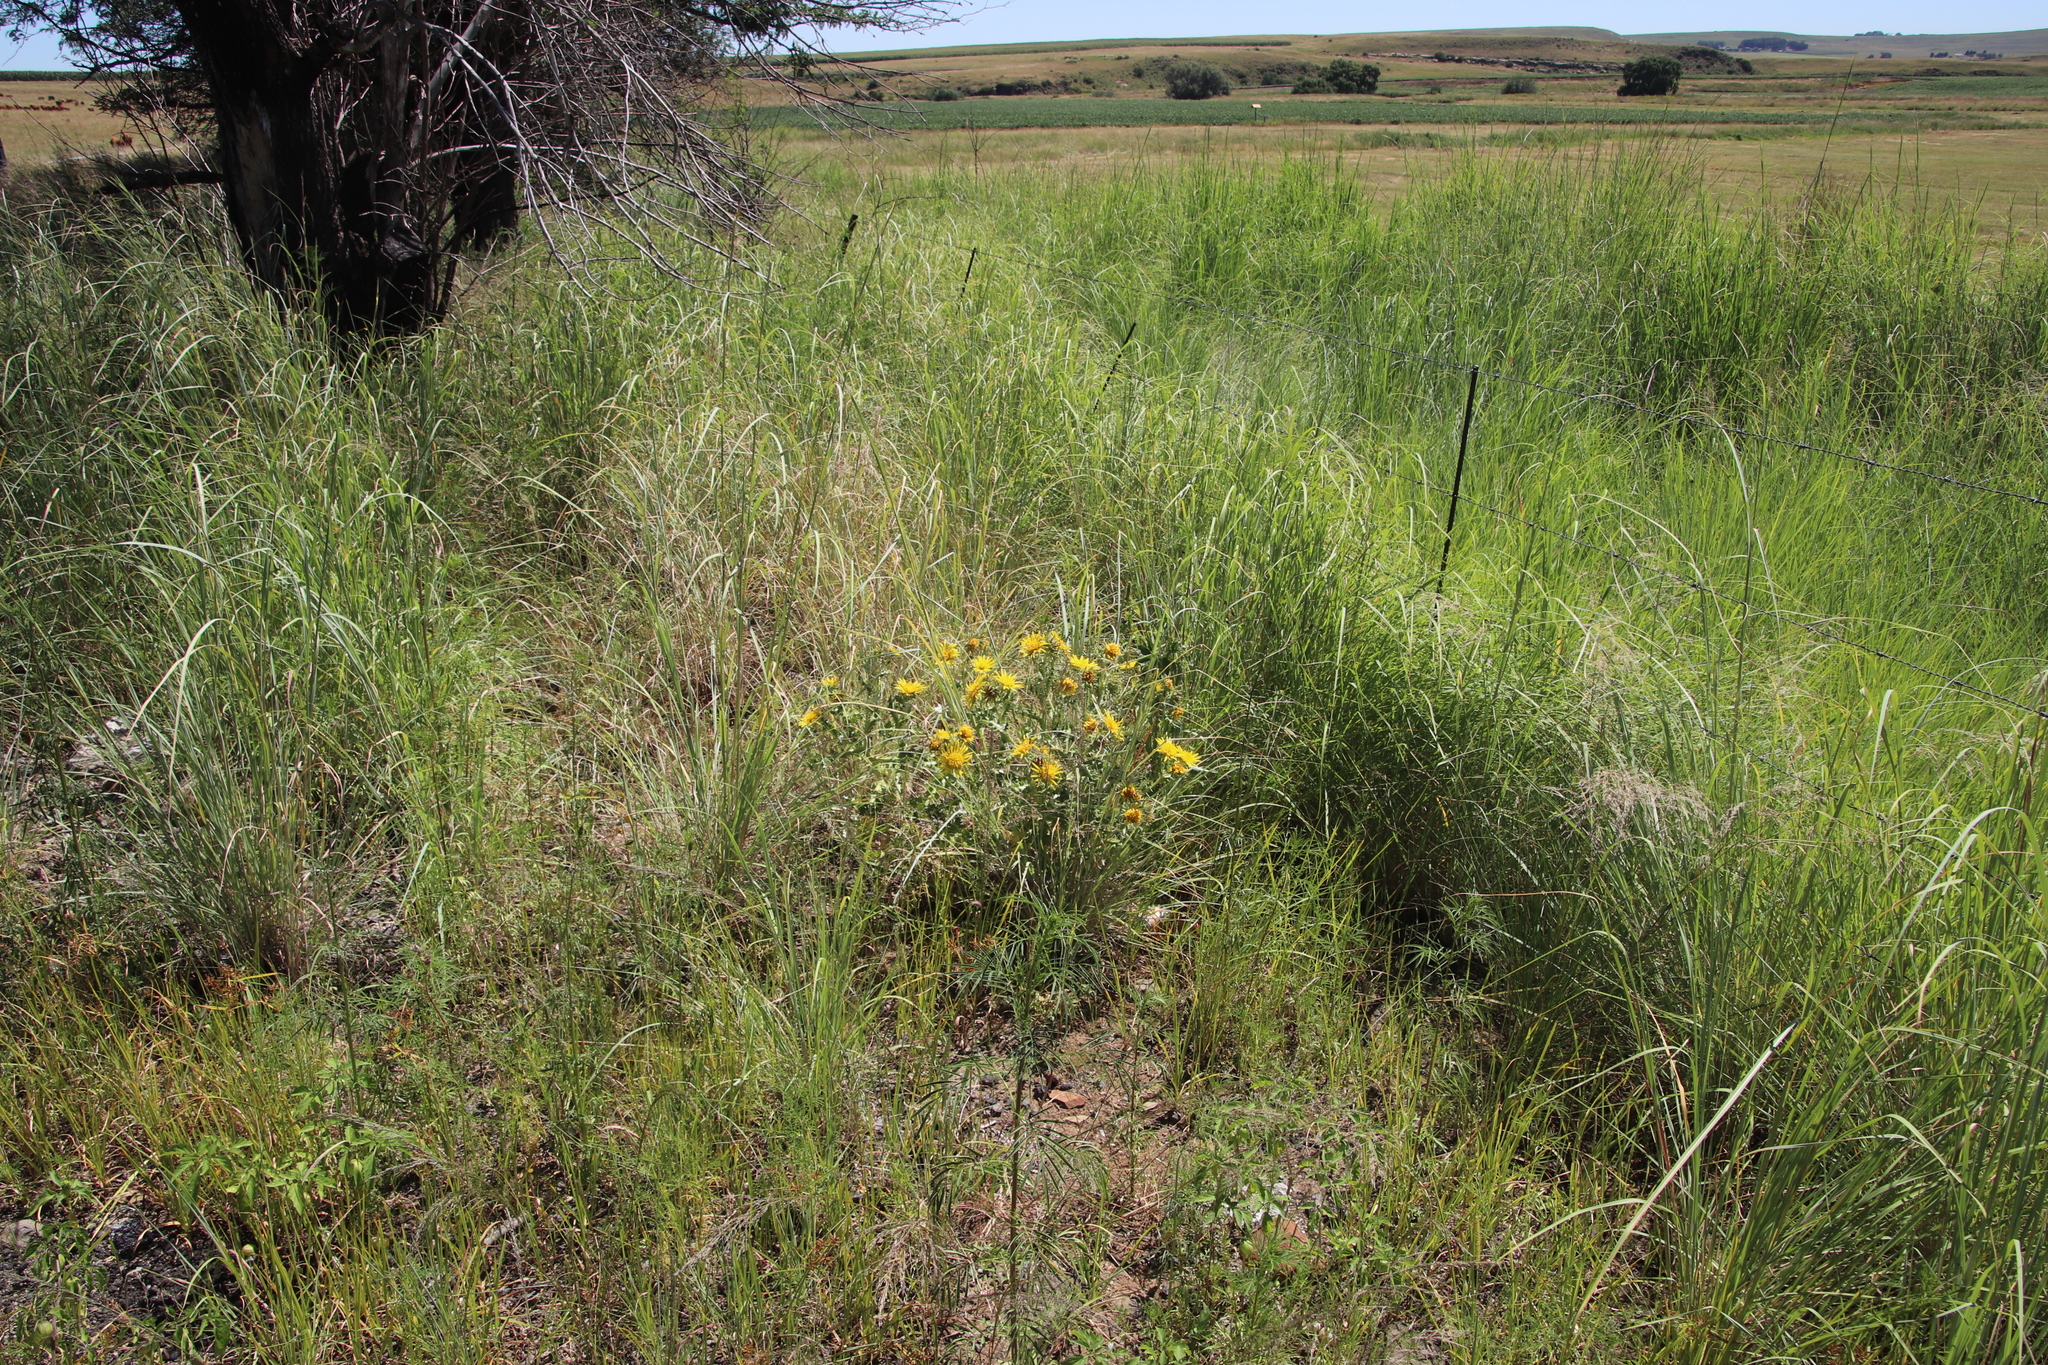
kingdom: Plantae
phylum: Tracheophyta
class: Magnoliopsida
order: Asterales
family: Asteraceae
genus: Berkheya
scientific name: Berkheya onopordifolia
